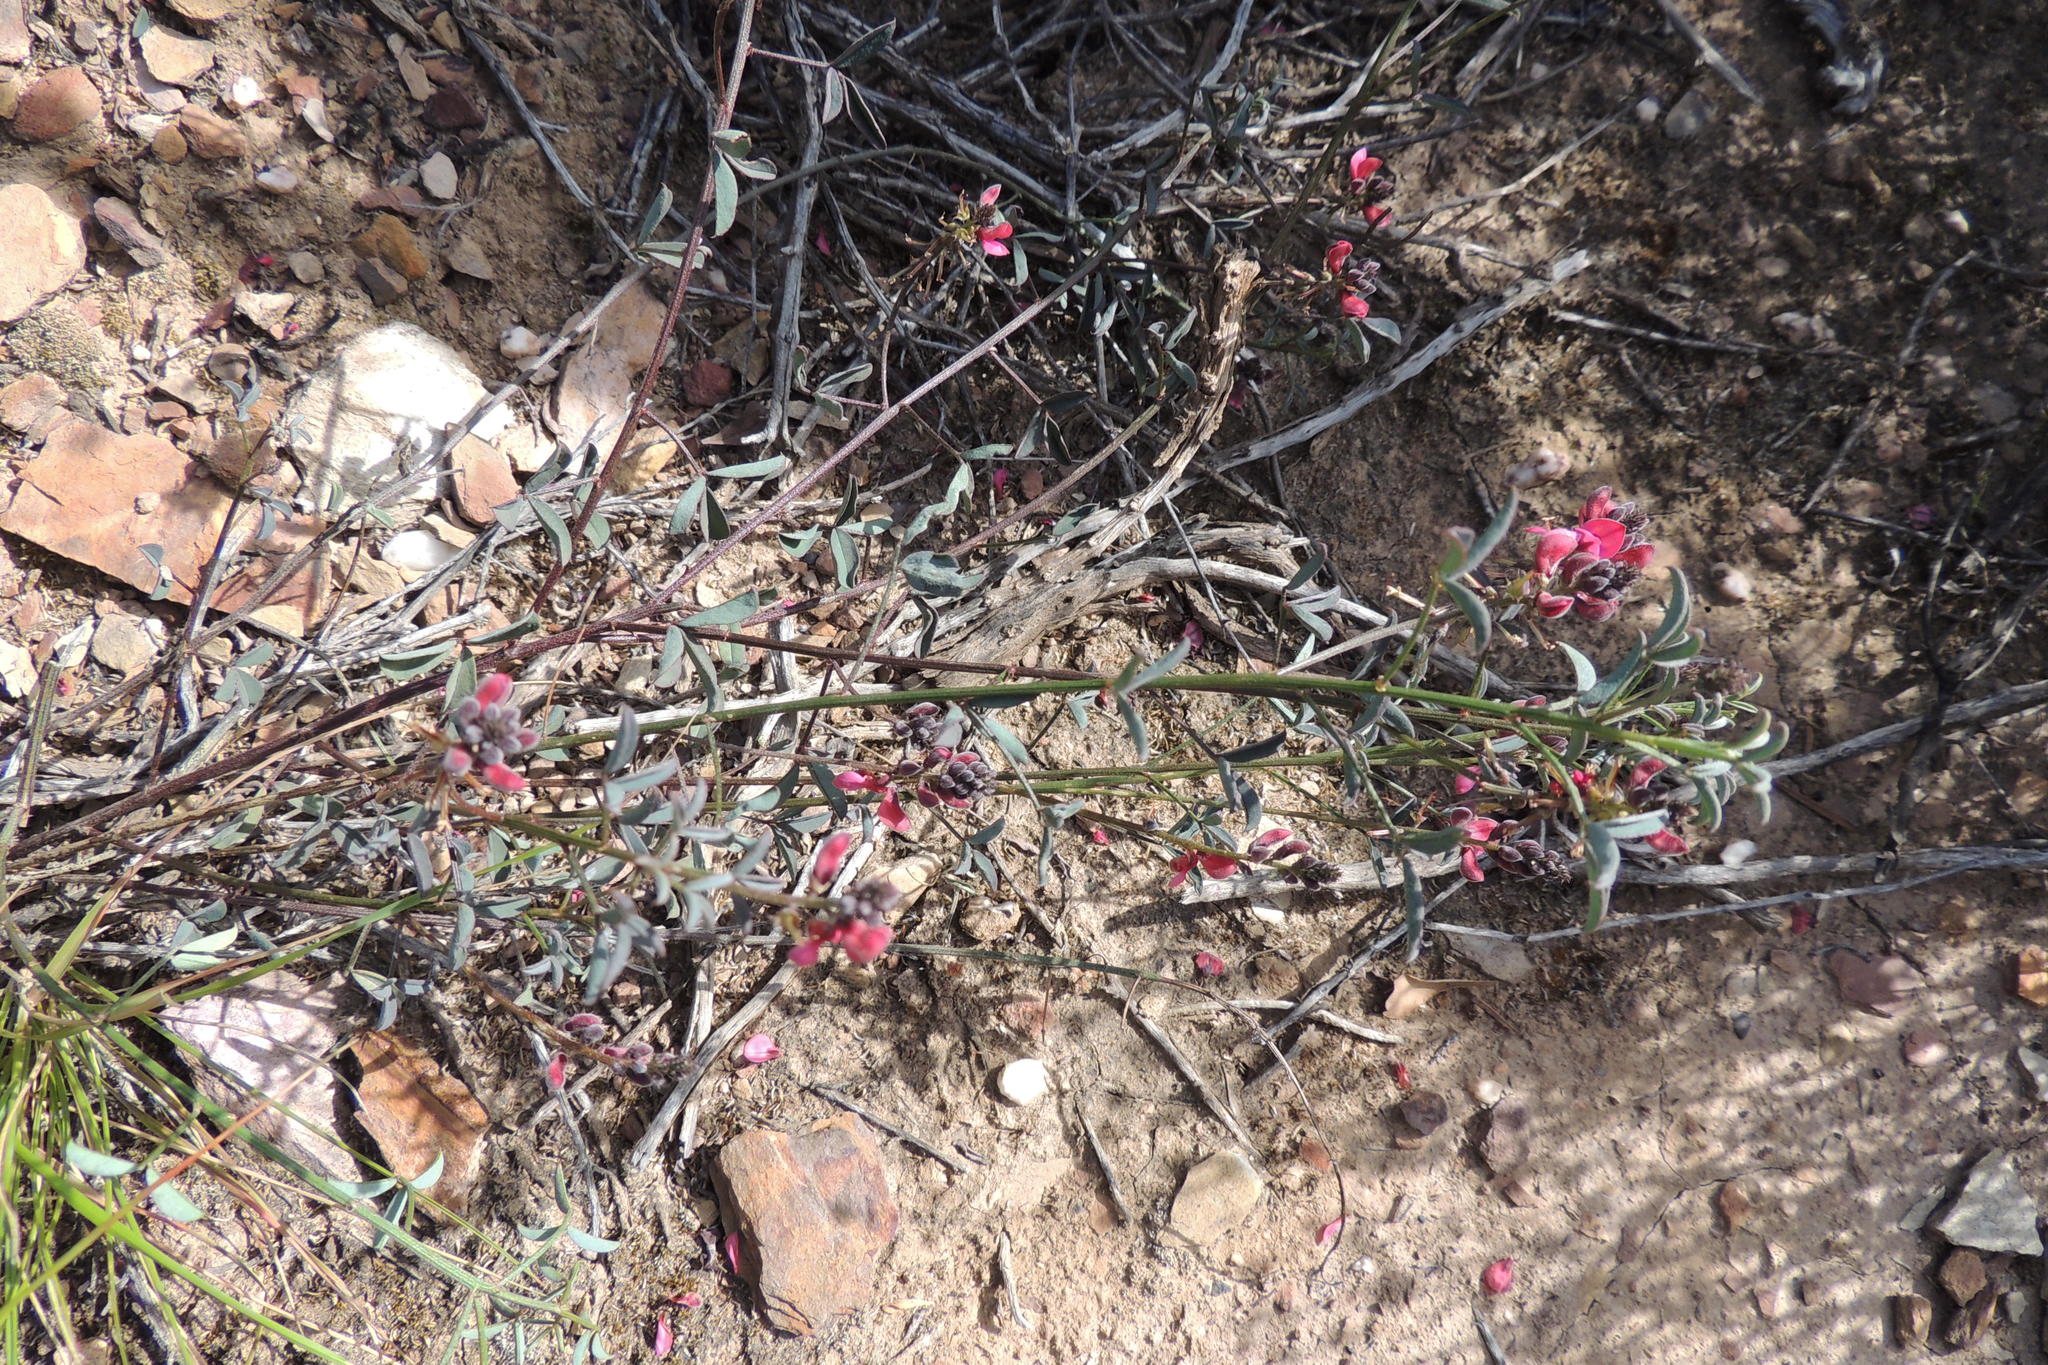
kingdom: Plantae
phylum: Tracheophyta
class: Magnoliopsida
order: Fabales
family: Fabaceae
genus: Indigofera
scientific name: Indigofera heterophylla
